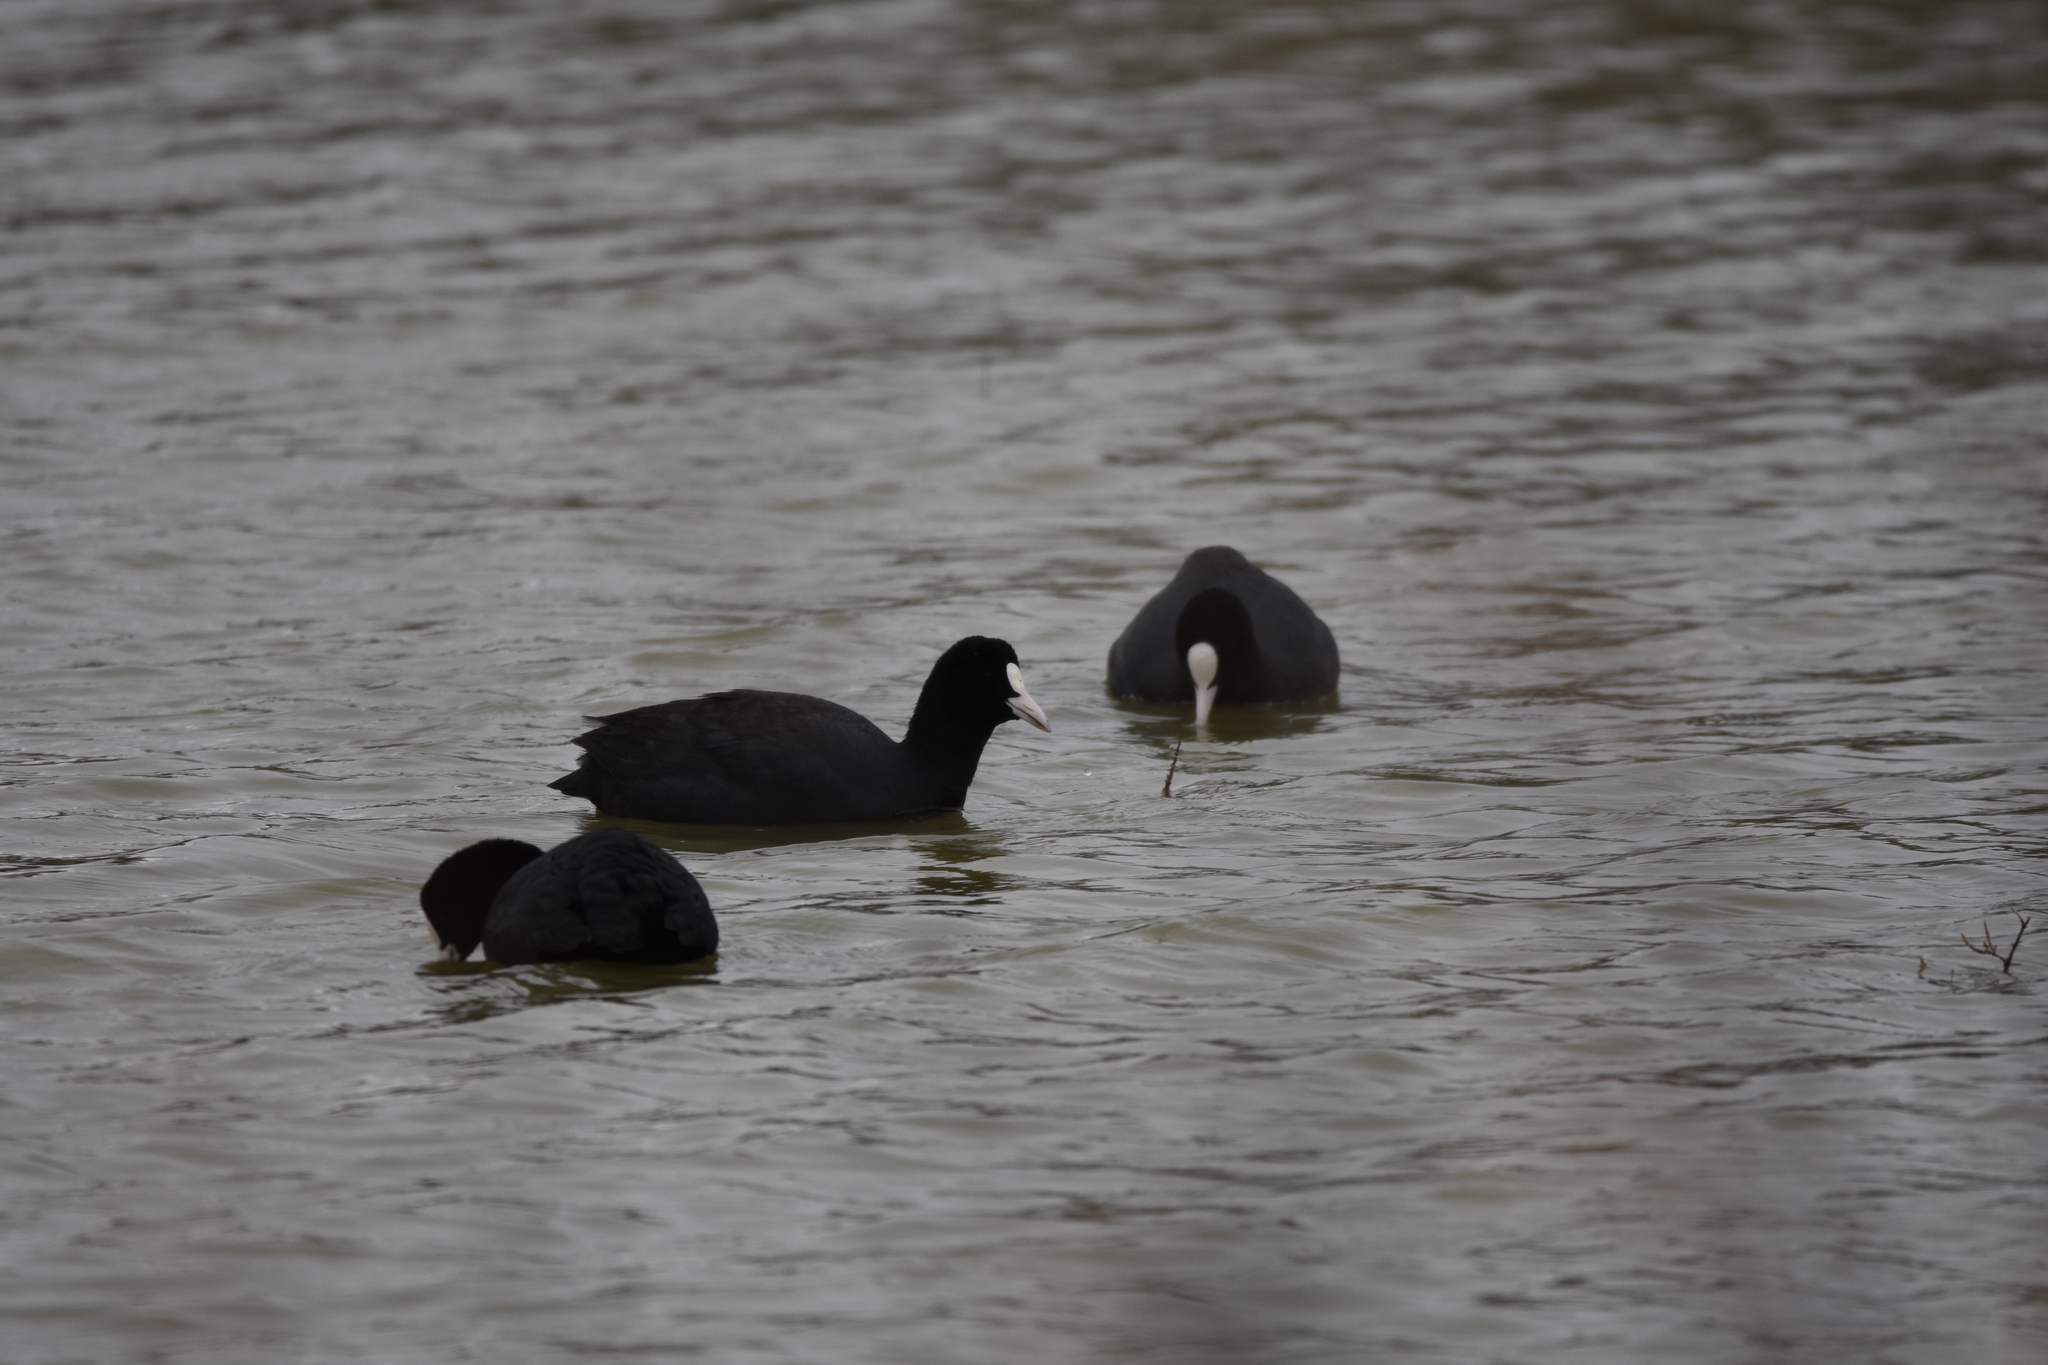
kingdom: Animalia
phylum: Chordata
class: Aves
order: Gruiformes
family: Rallidae
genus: Fulica
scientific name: Fulica atra
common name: Eurasian coot
